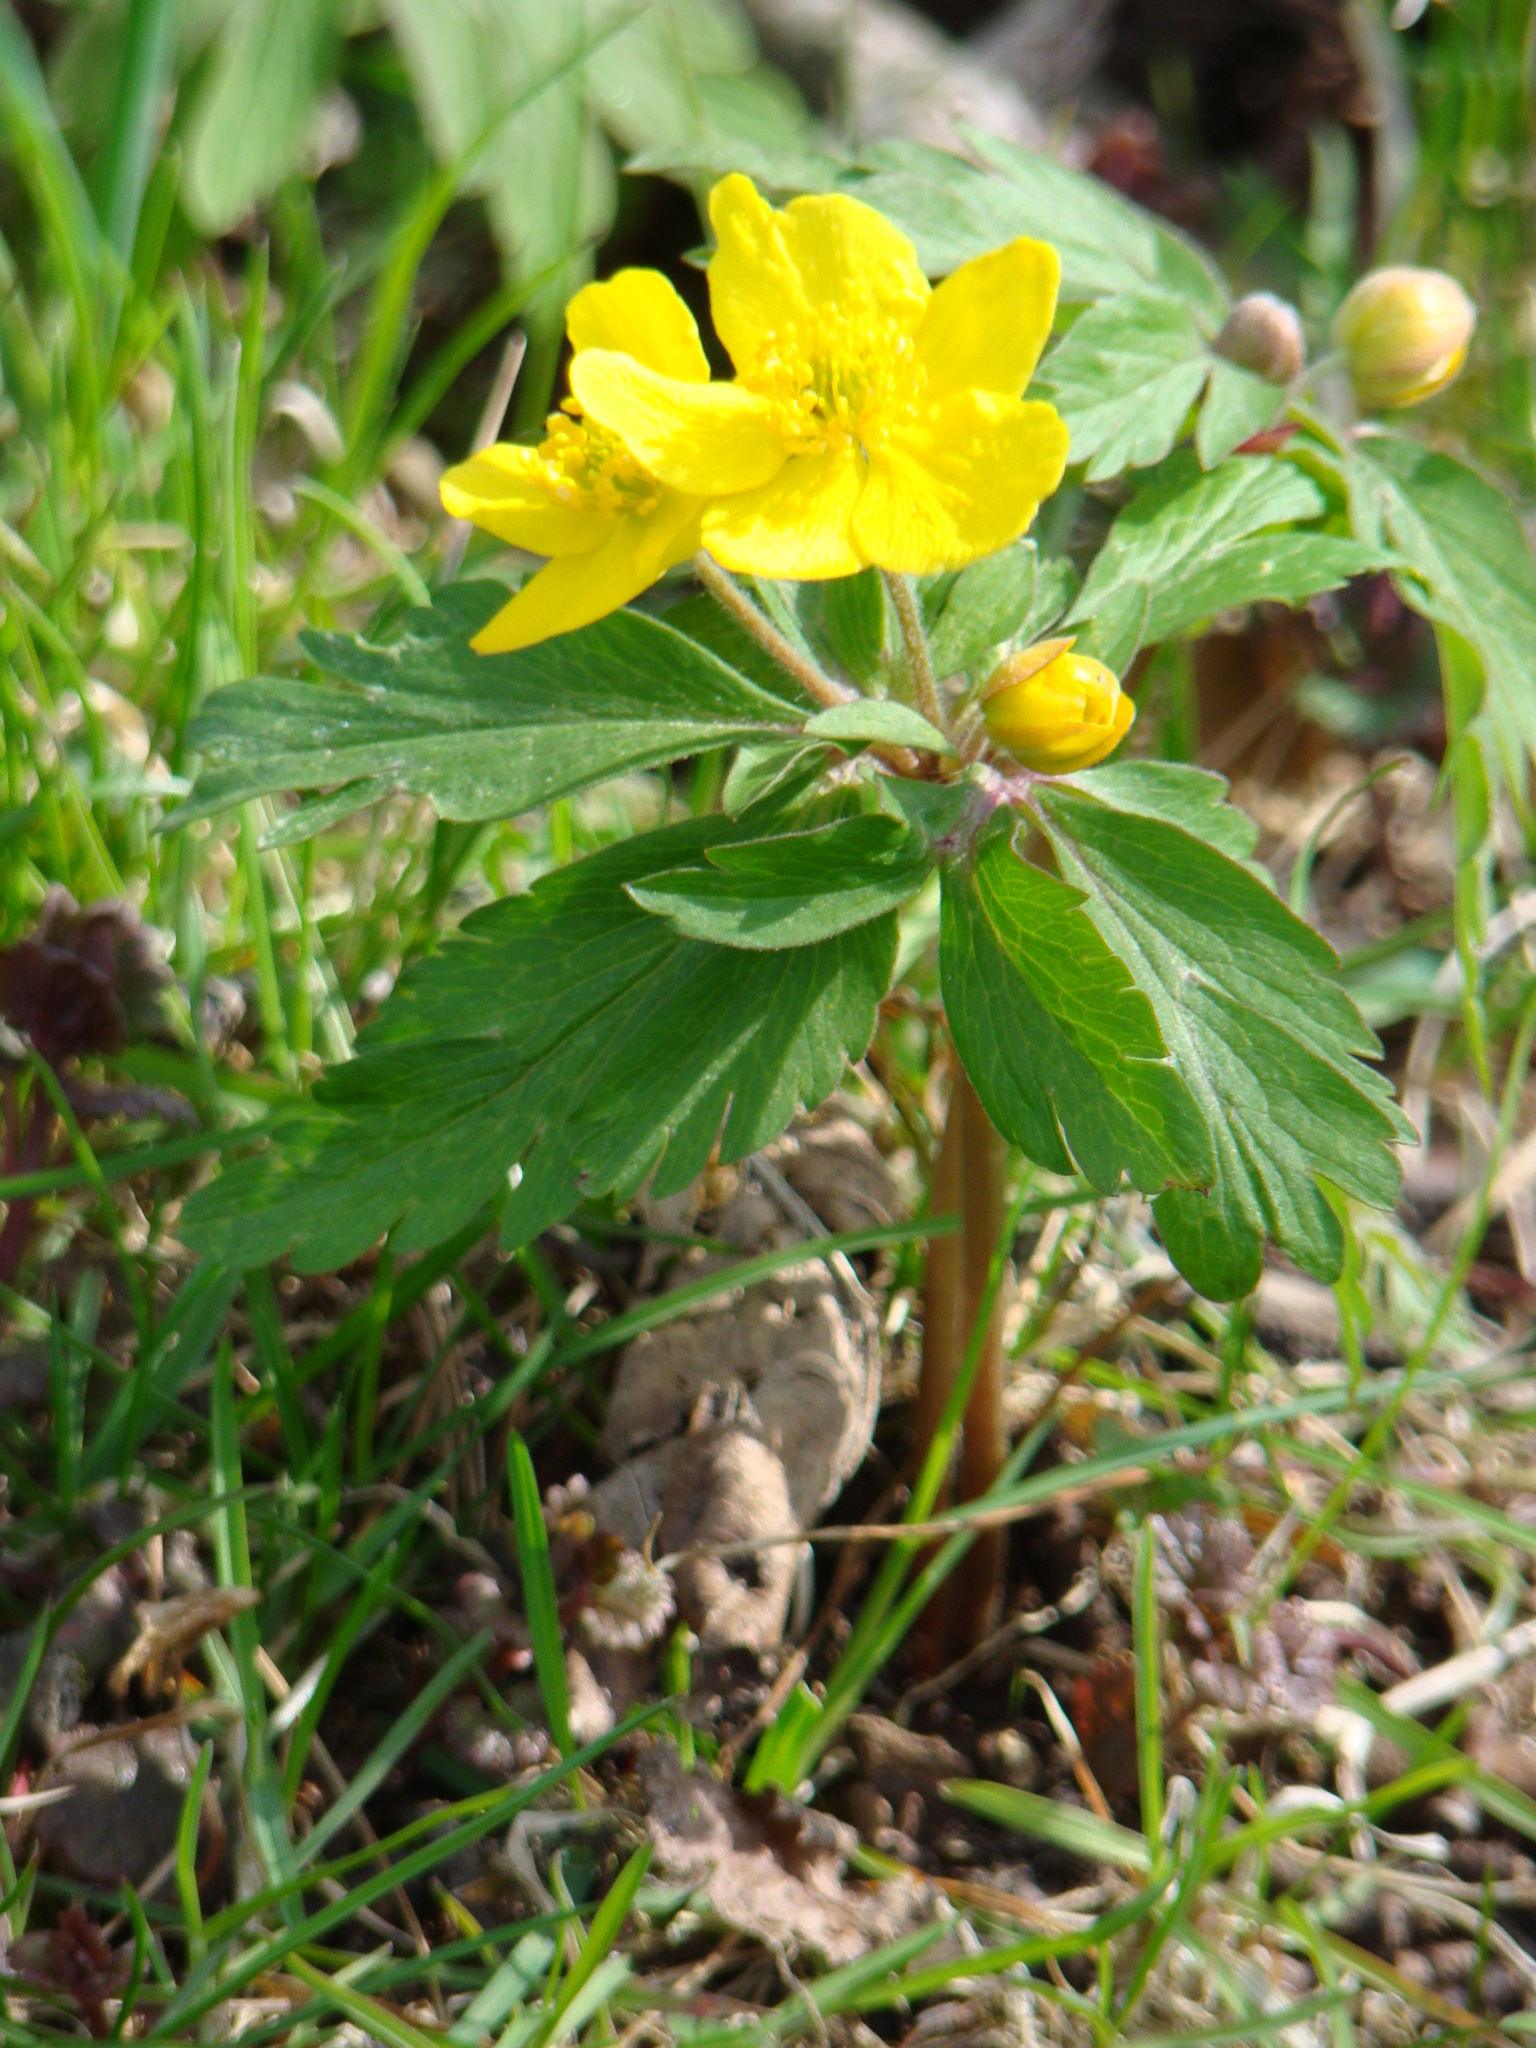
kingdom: Plantae
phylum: Tracheophyta
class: Magnoliopsida
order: Ranunculales
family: Ranunculaceae
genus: Anemone
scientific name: Anemone ranunculoides
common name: Yellow anemone
